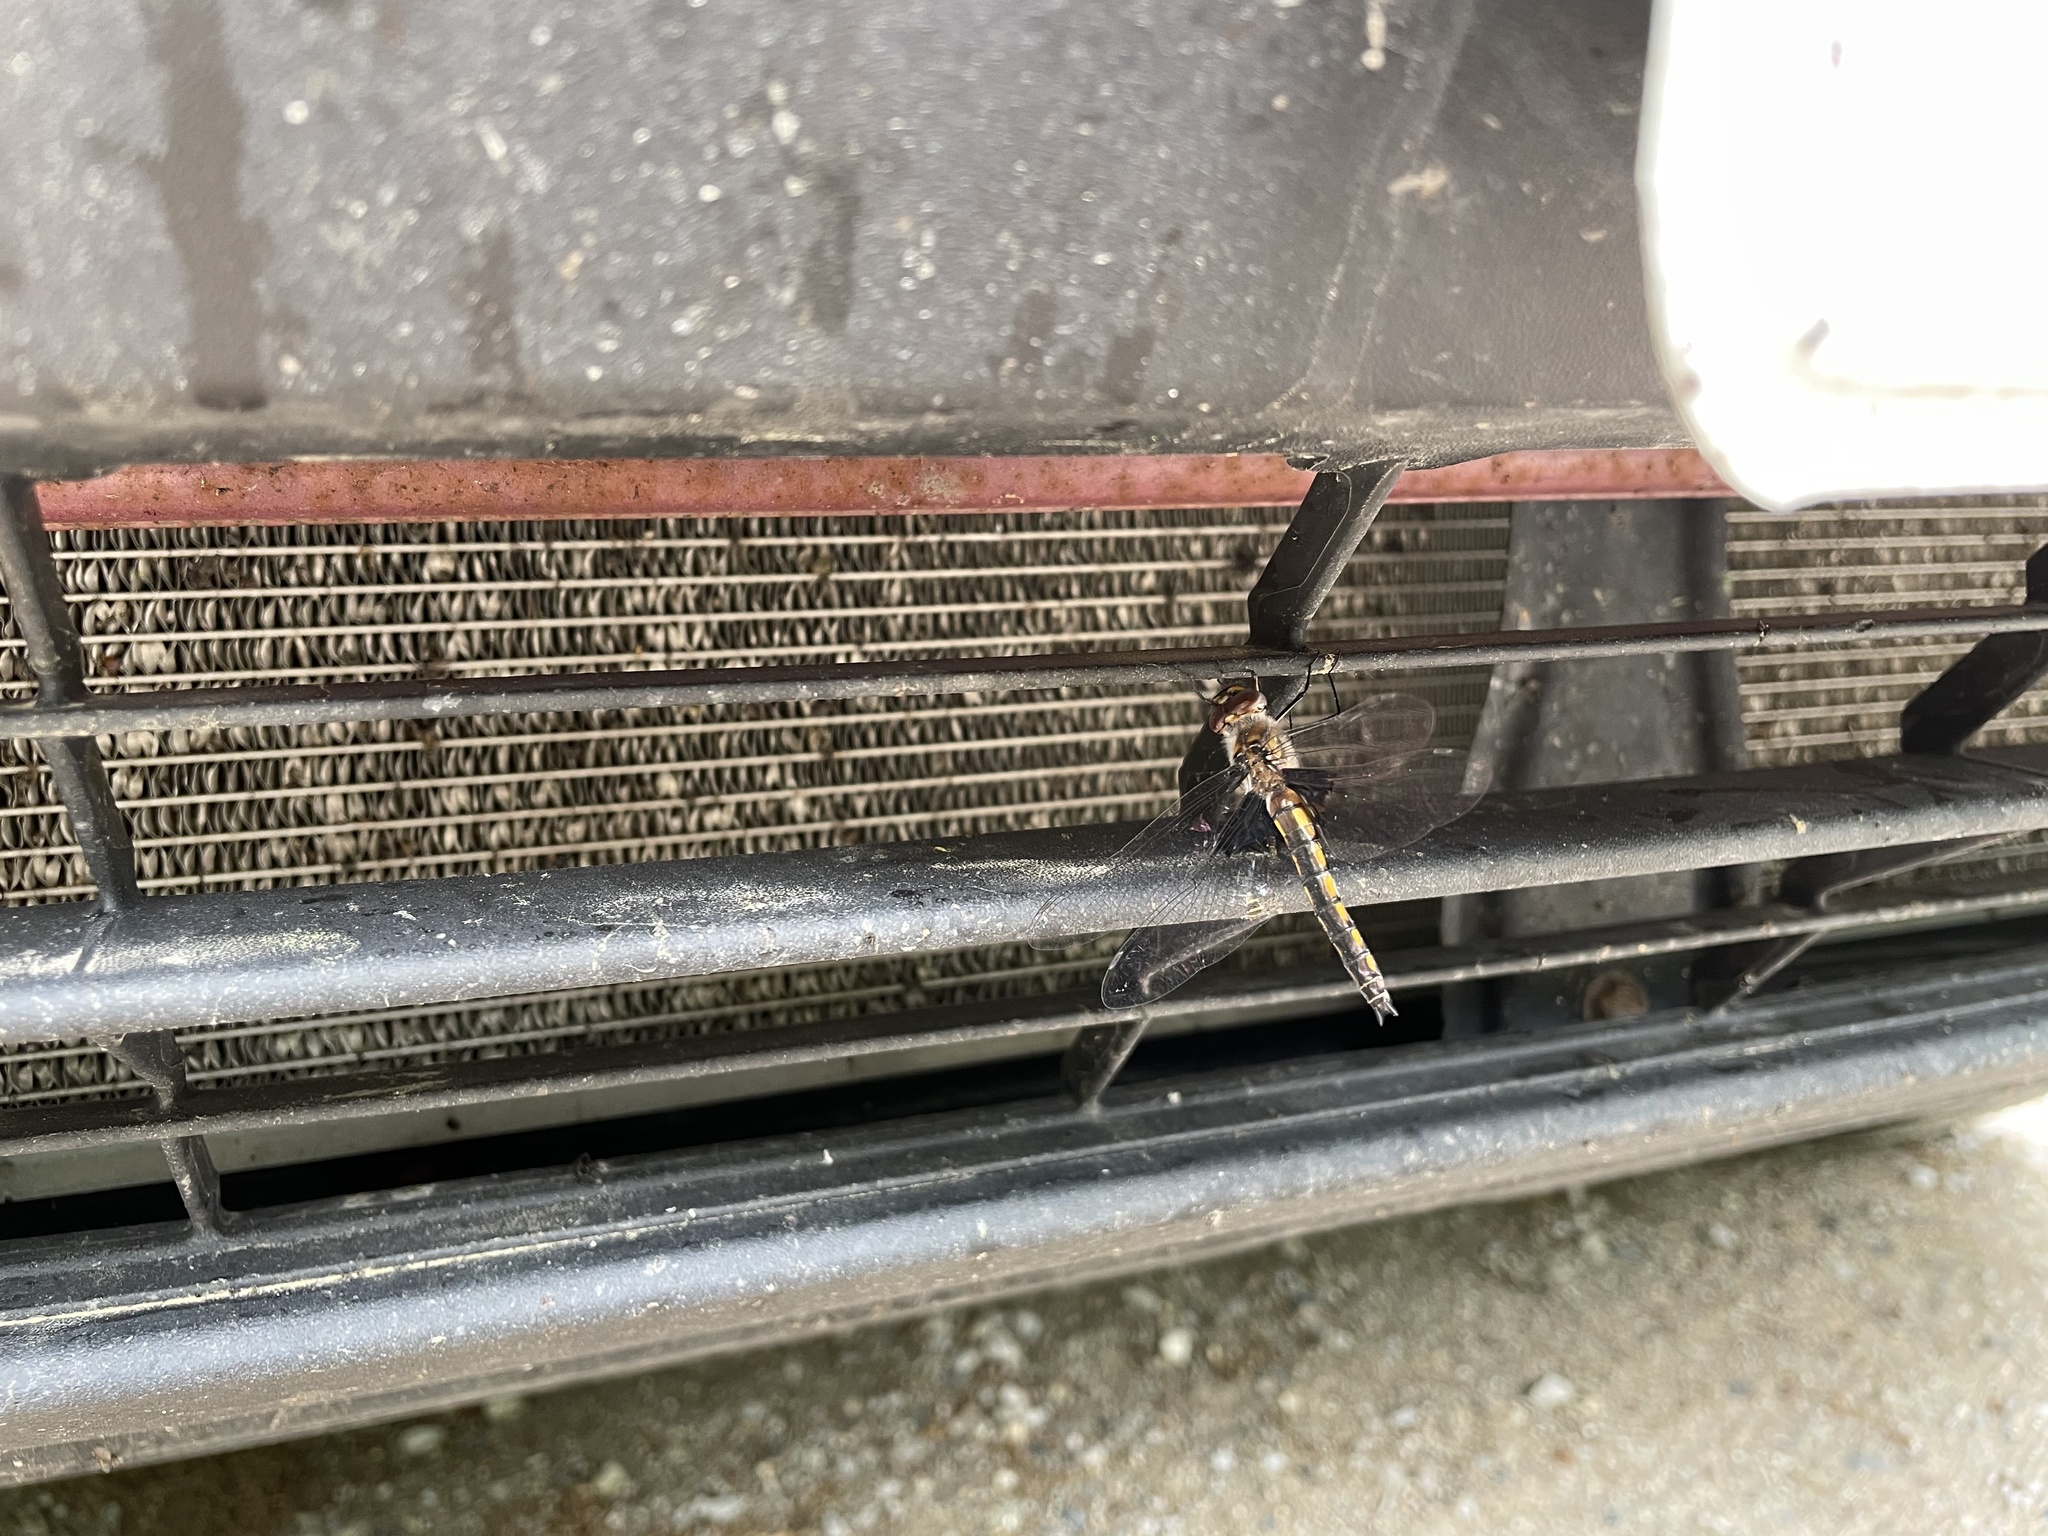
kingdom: Animalia
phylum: Arthropoda
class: Insecta
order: Odonata
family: Corduliidae
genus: Epitheca
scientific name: Epitheca cynosura
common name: Common baskettail
